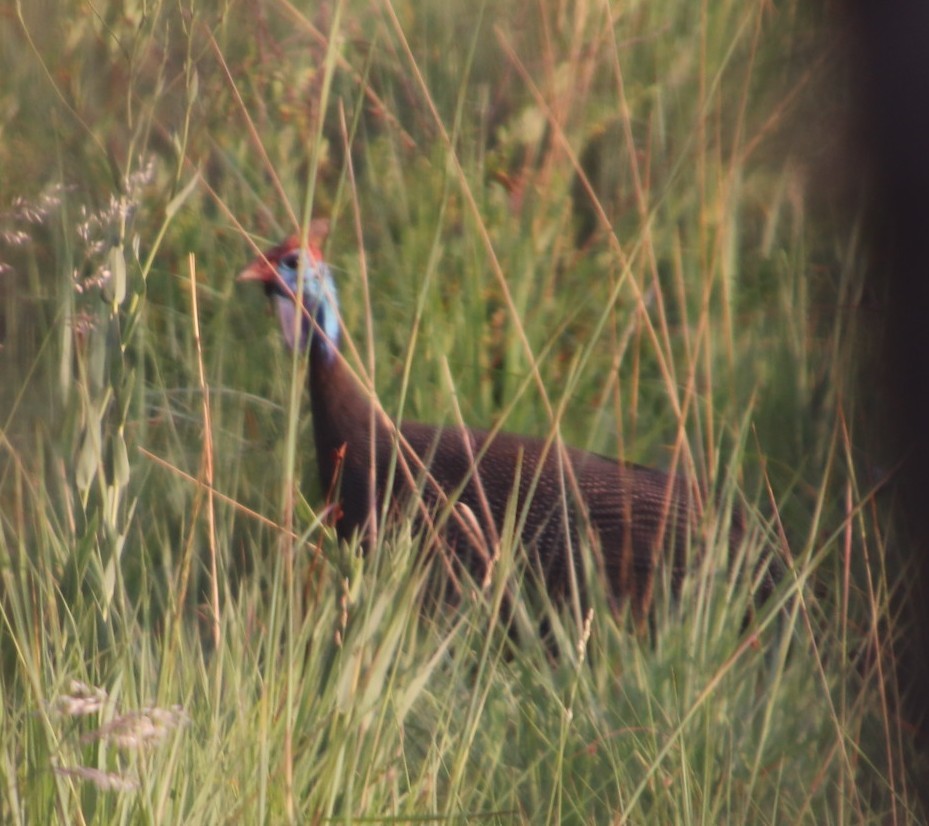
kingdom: Animalia
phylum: Chordata
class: Aves
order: Galliformes
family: Numididae
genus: Numida
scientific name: Numida meleagris
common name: Helmeted guineafowl
